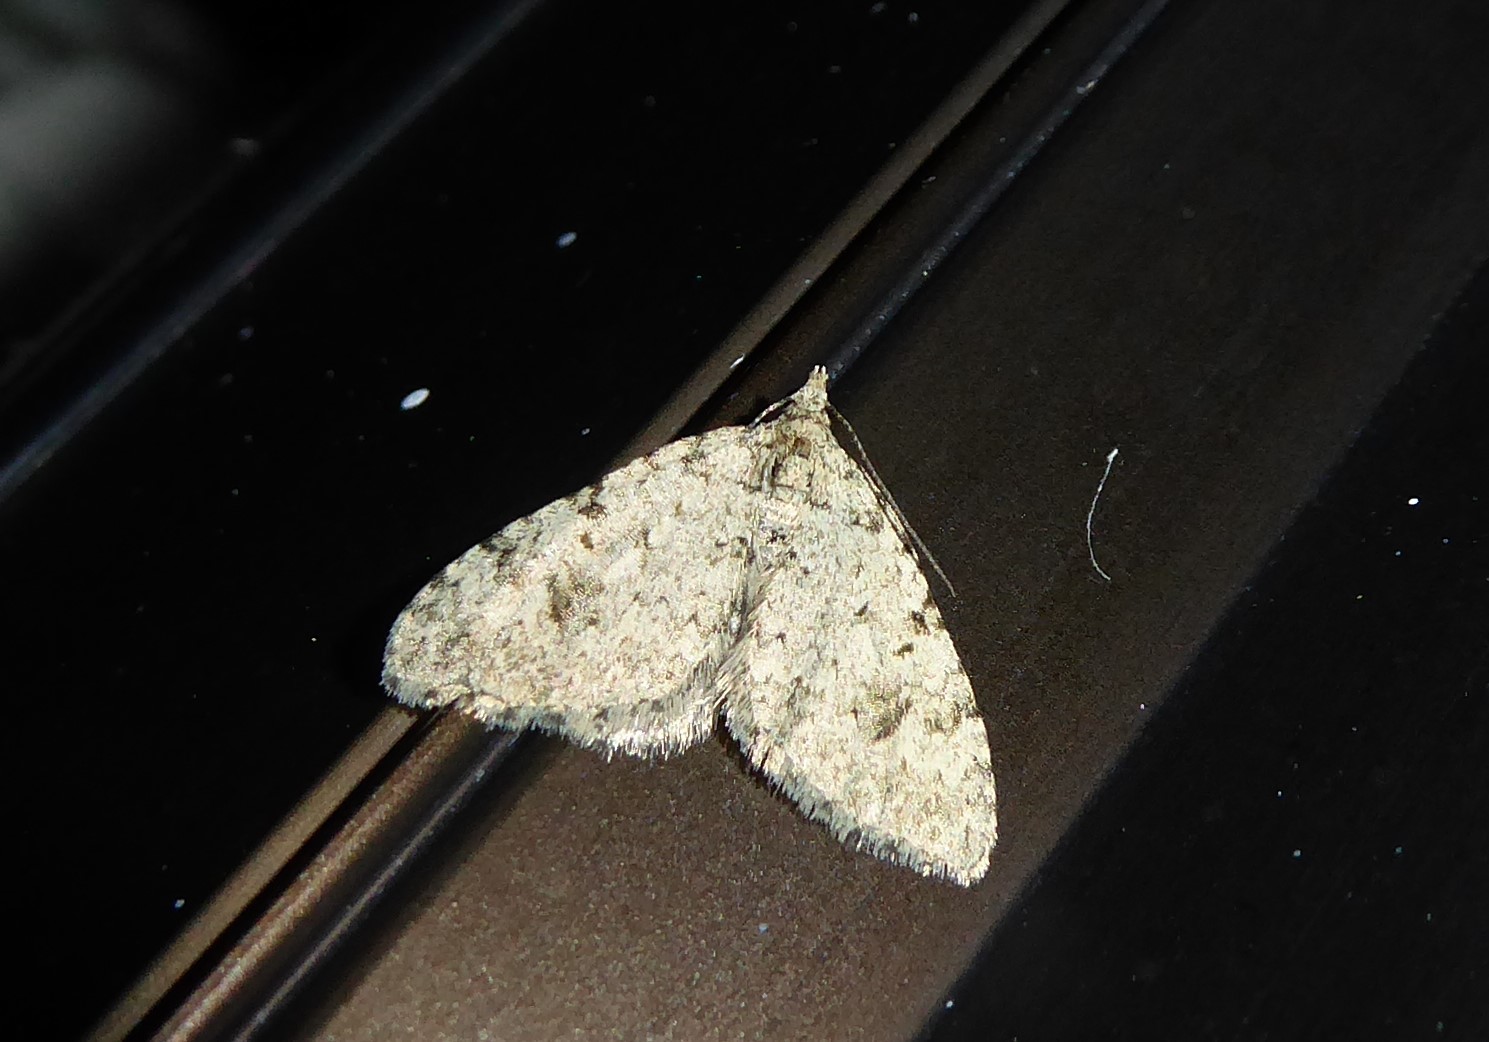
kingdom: Animalia
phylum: Arthropoda
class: Insecta
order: Lepidoptera
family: Geometridae
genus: Helastia
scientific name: Helastia cinerearia
